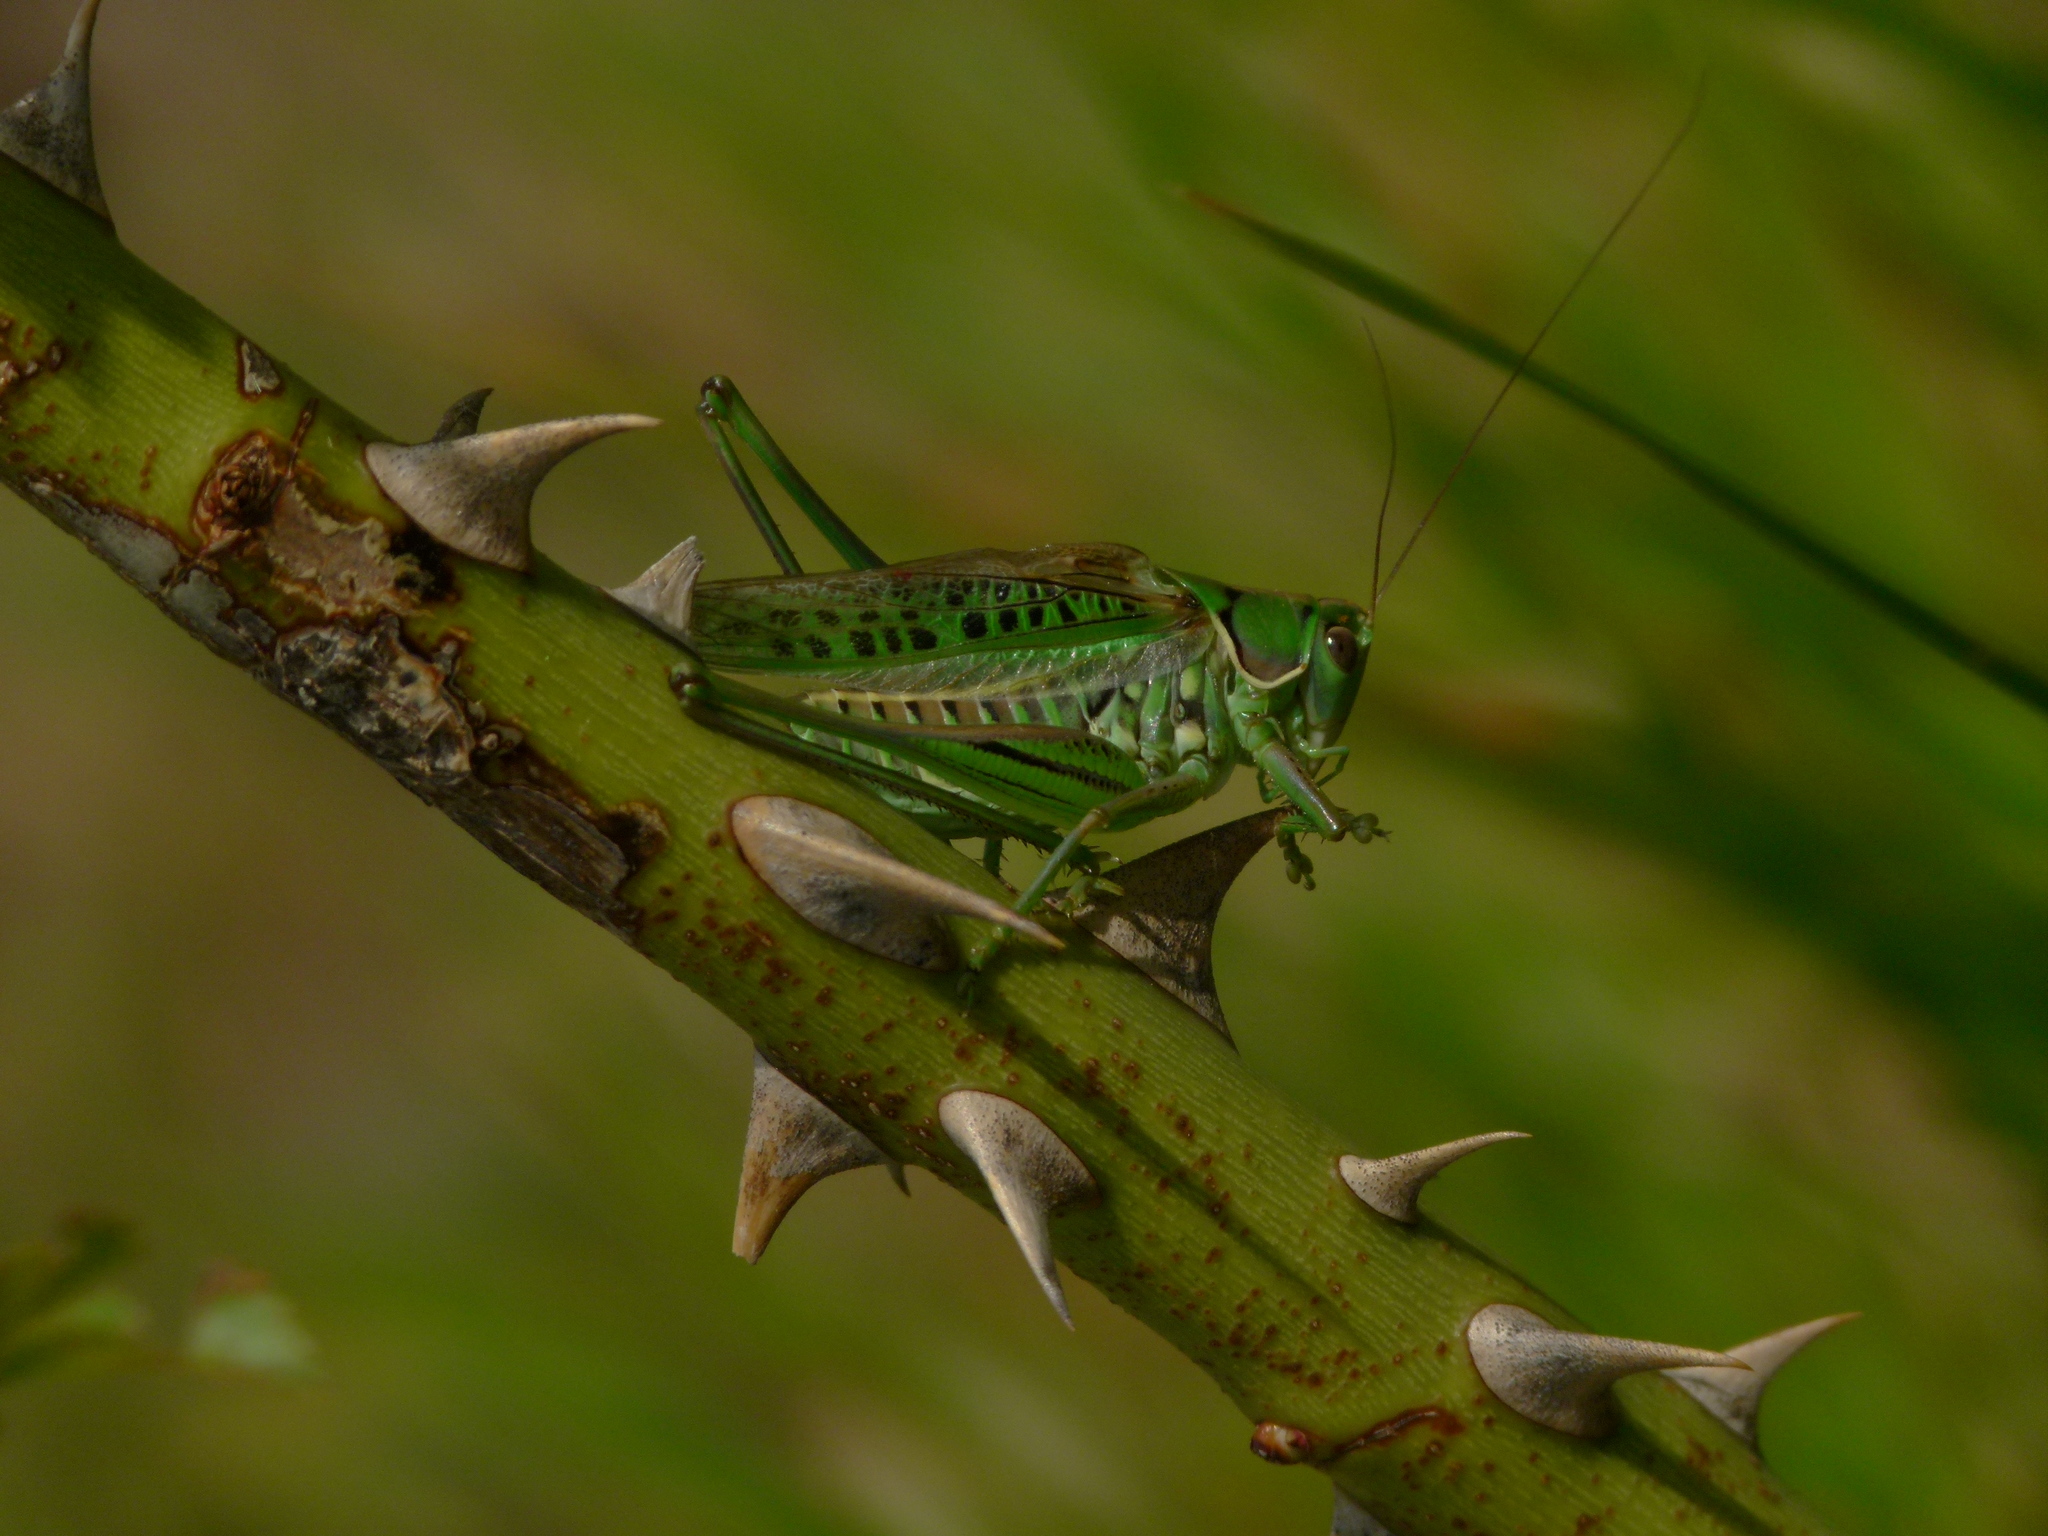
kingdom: Animalia
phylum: Arthropoda
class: Insecta
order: Orthoptera
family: Tettigoniidae
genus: Gampsocleis
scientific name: Gampsocleis glabra
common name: Heath bushcricket
